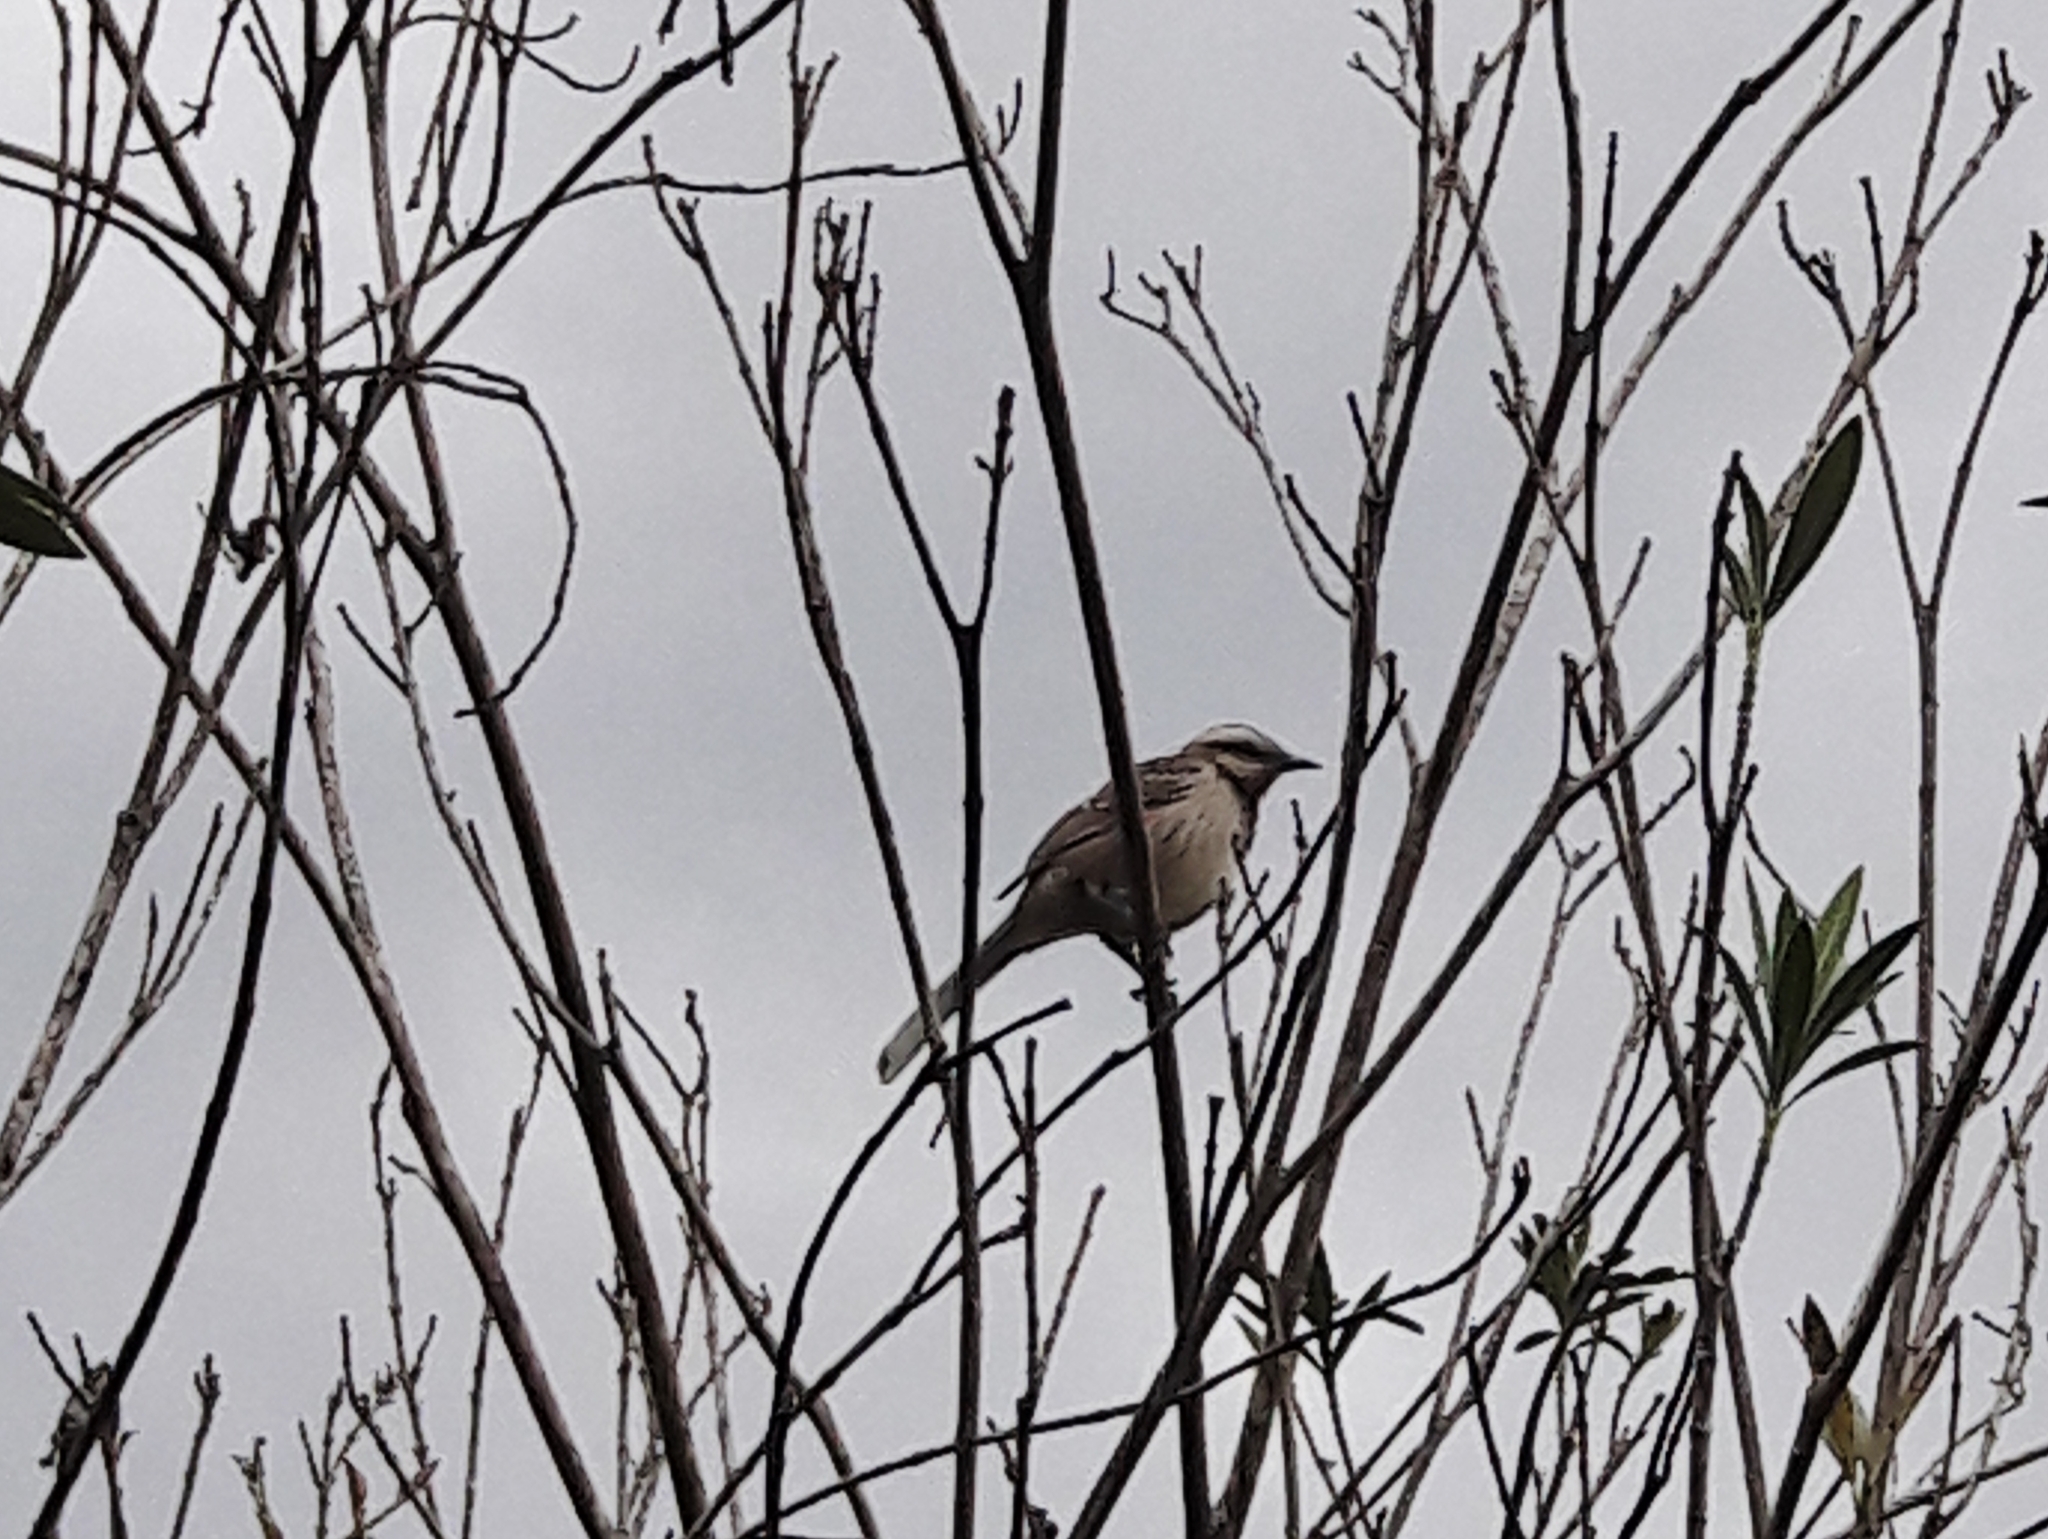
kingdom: Animalia
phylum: Chordata
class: Aves
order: Passeriformes
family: Mimidae
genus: Mimus
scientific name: Mimus saturninus
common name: Chalk-browed mockingbird
